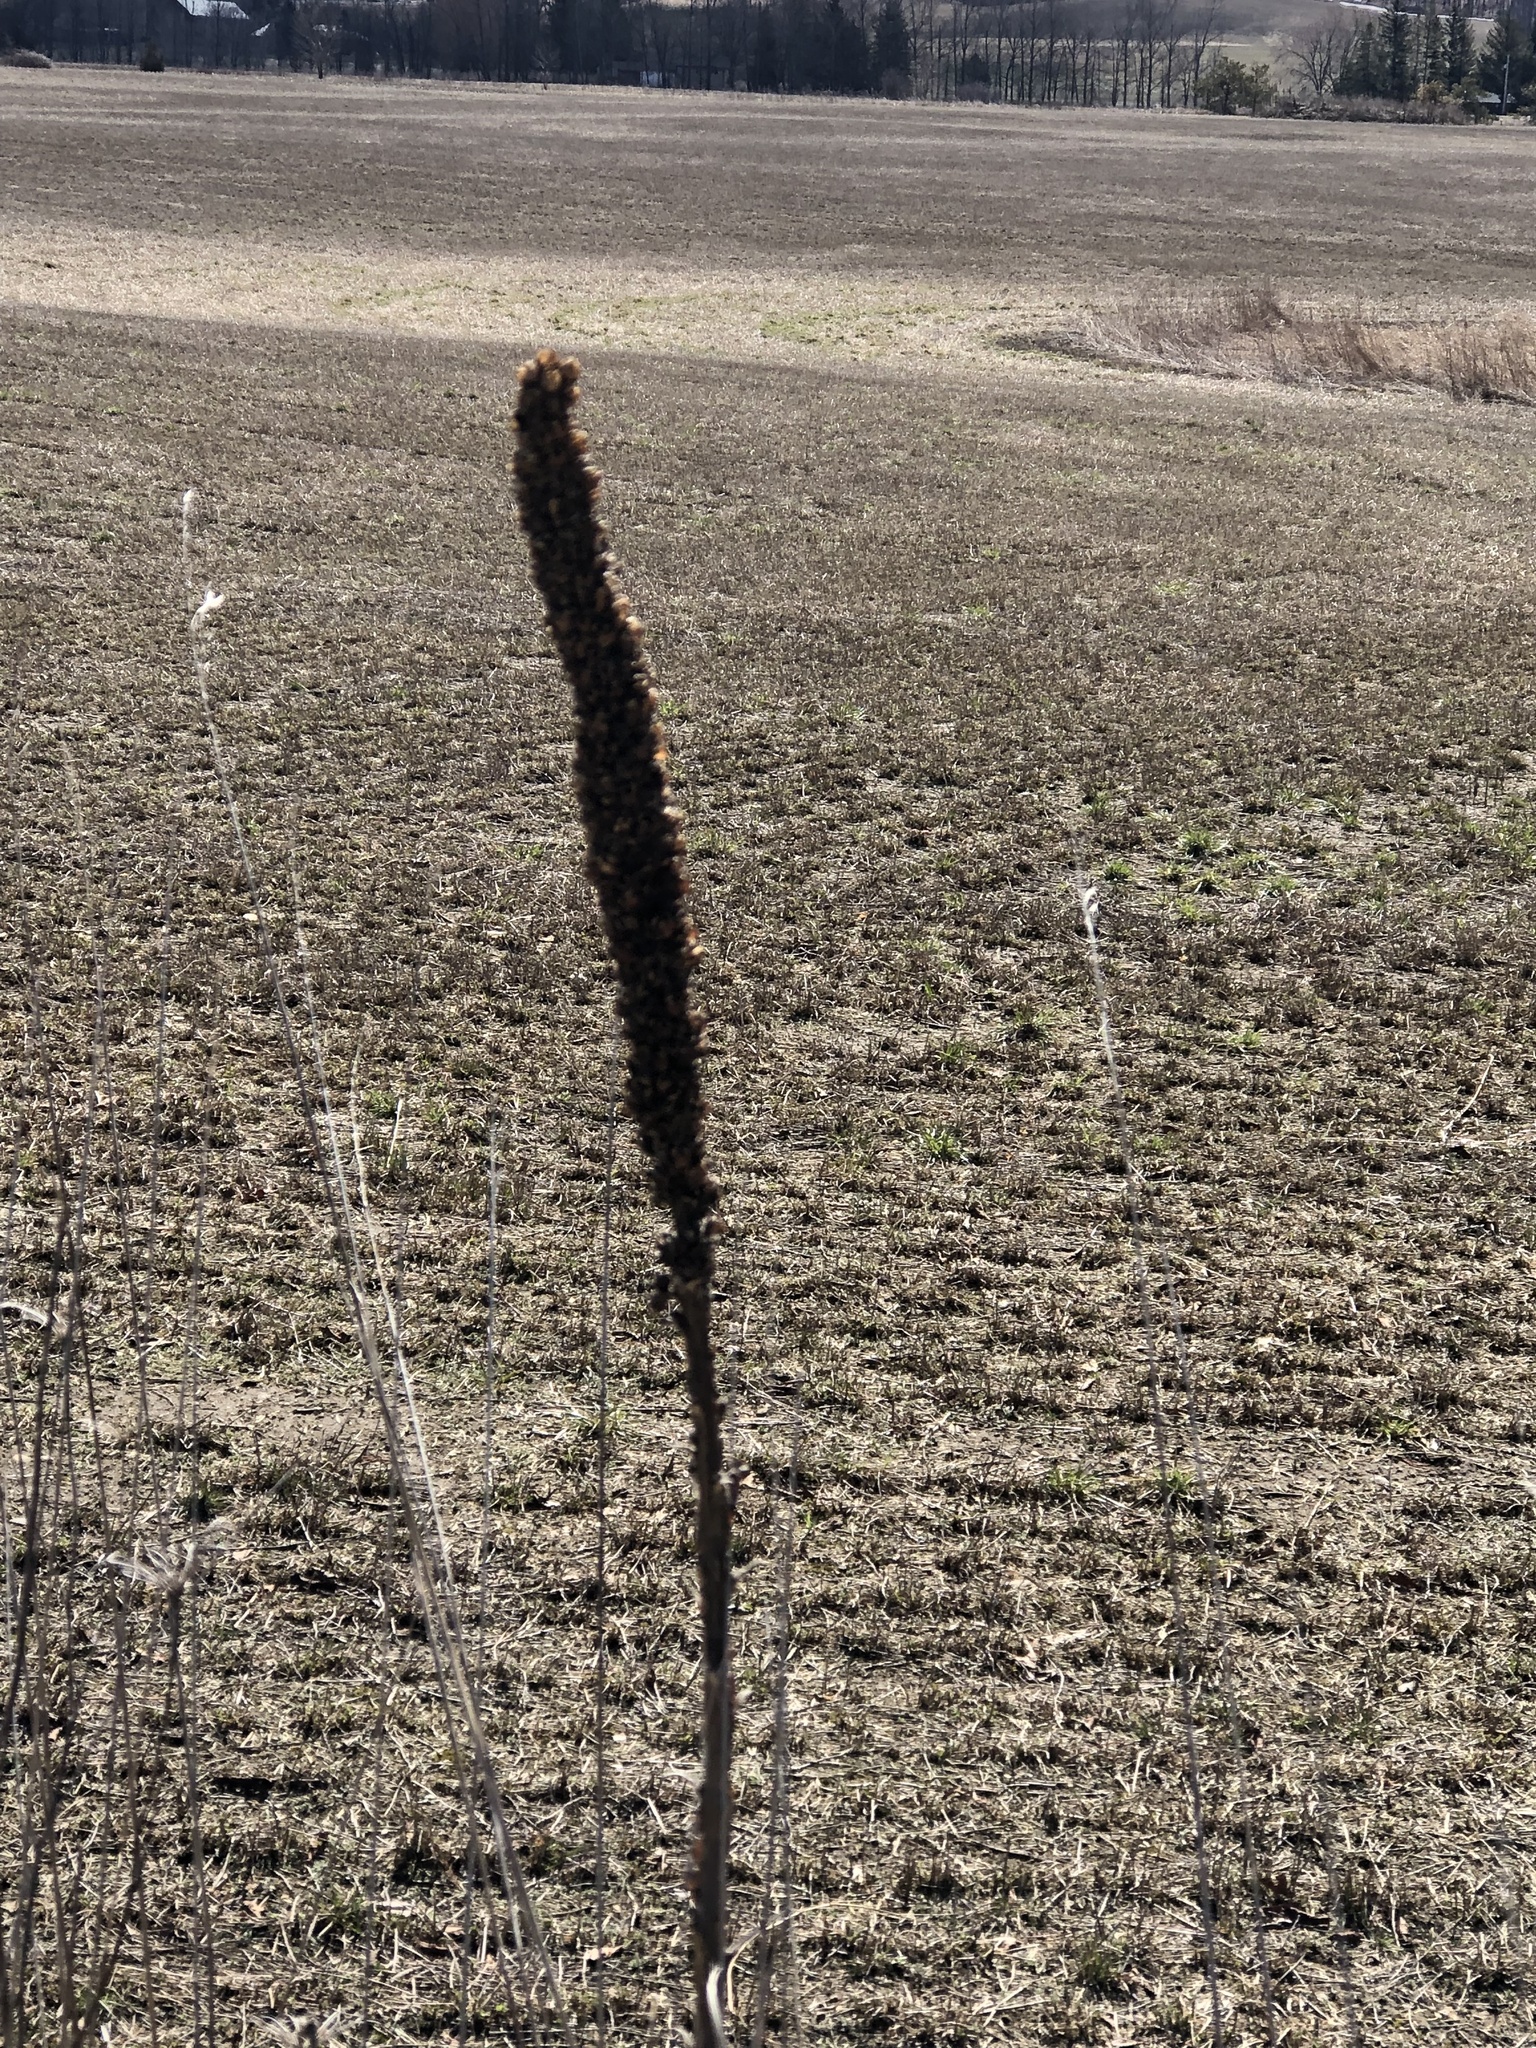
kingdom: Plantae
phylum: Tracheophyta
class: Magnoliopsida
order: Lamiales
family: Scrophulariaceae
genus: Verbascum
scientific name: Verbascum thapsus
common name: Common mullein
